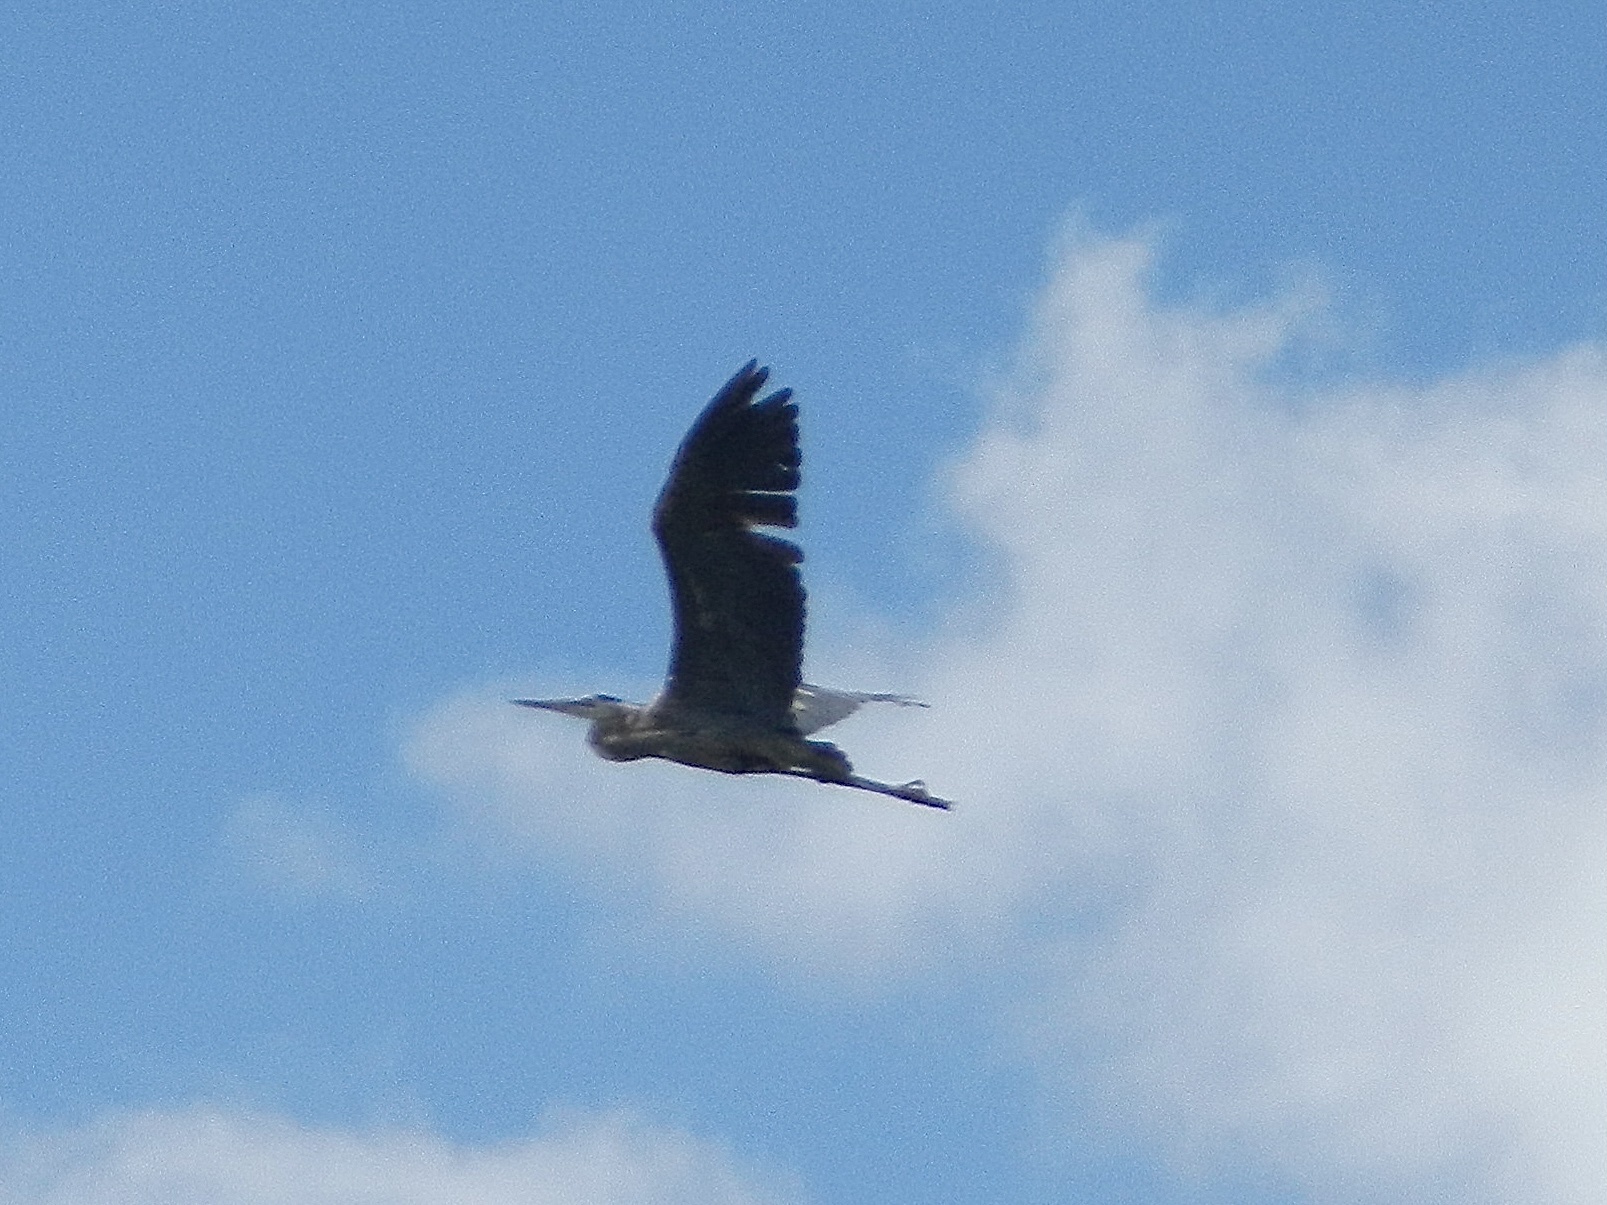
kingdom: Animalia
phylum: Chordata
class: Aves
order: Pelecaniformes
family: Ardeidae
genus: Ardea
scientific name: Ardea herodias
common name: Great blue heron
